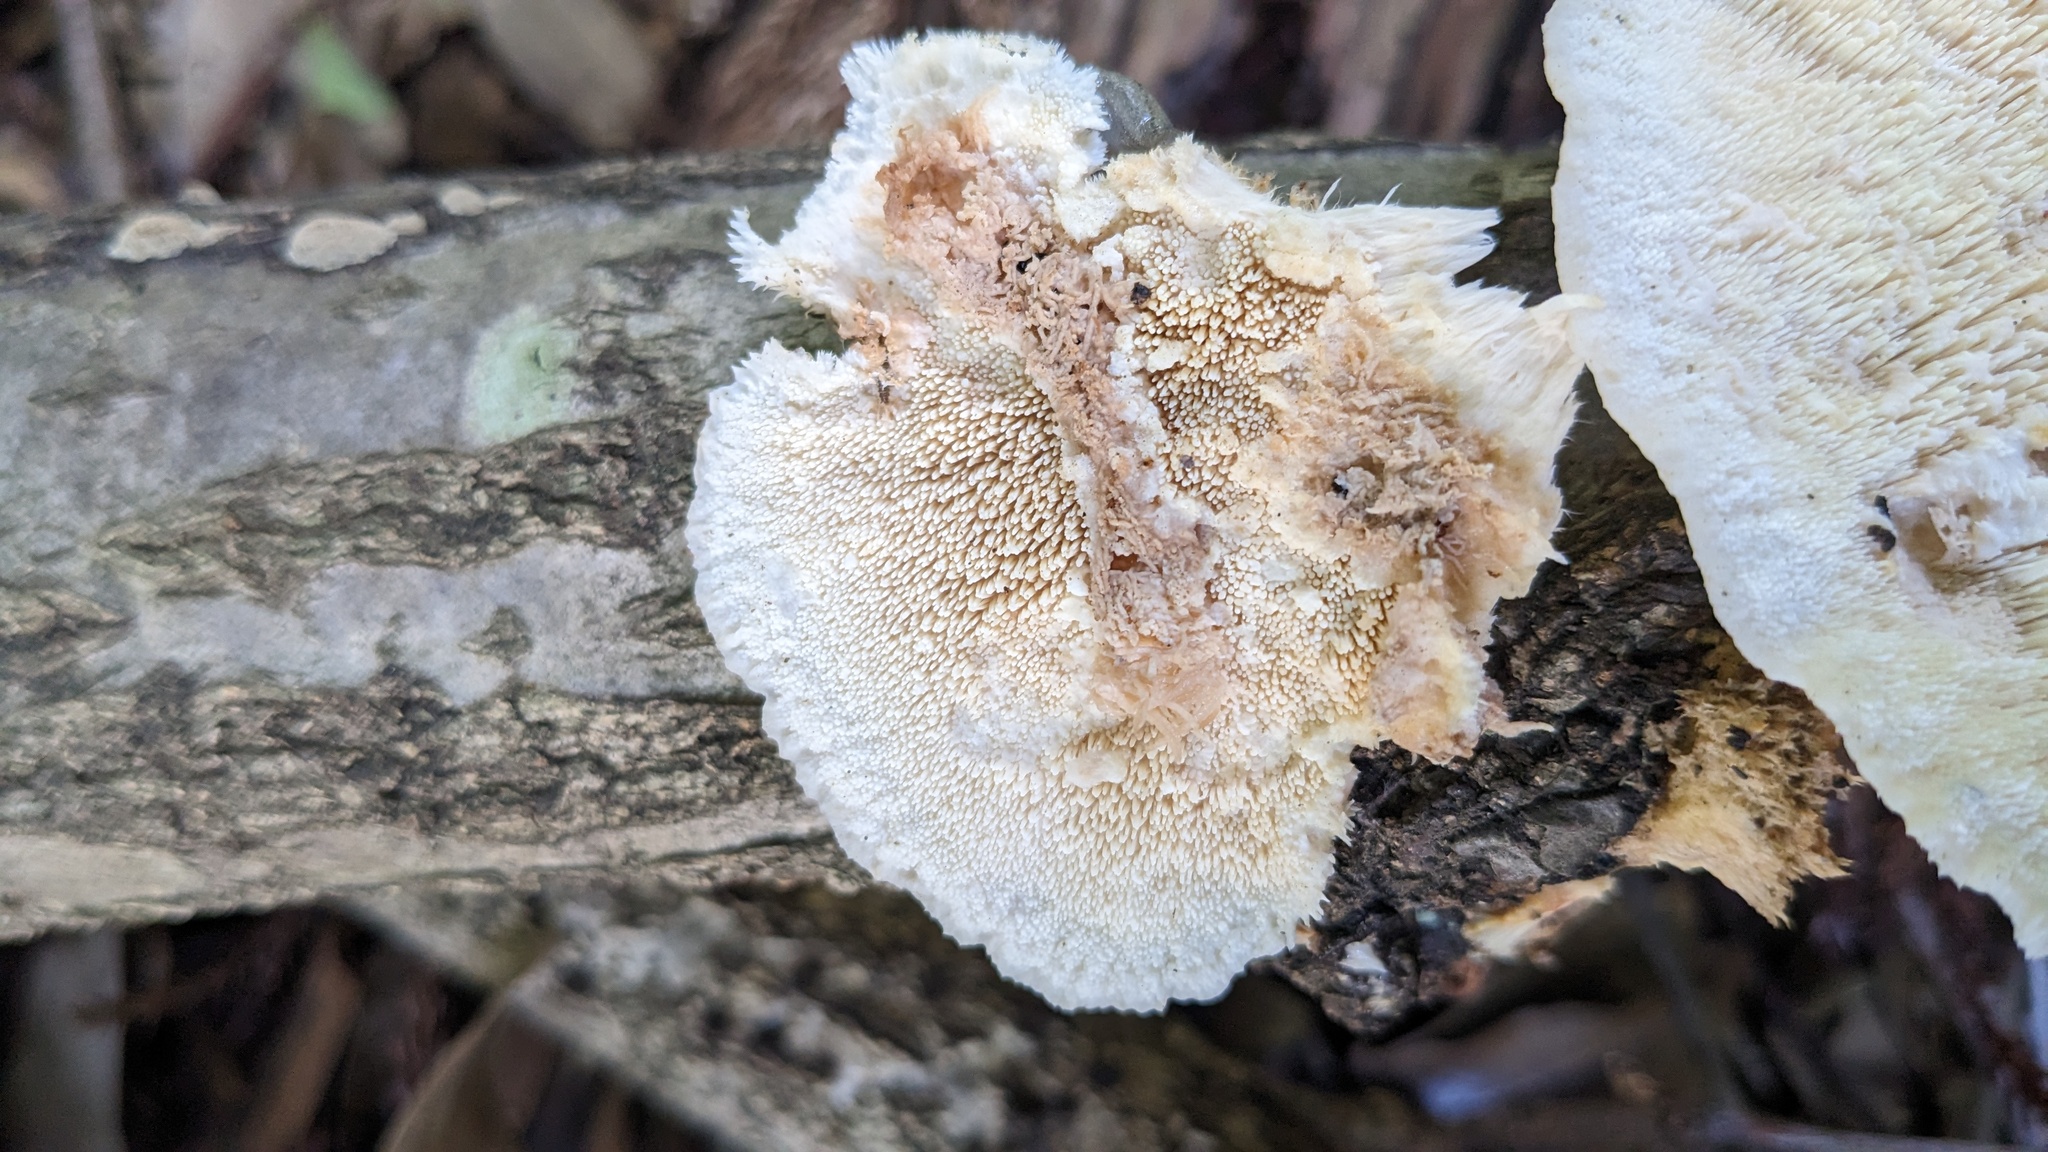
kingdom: Fungi
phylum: Basidiomycota
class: Agaricomycetes
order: Polyporales
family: Meruliaceae
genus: Donkia
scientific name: Donkia pulcherrima
